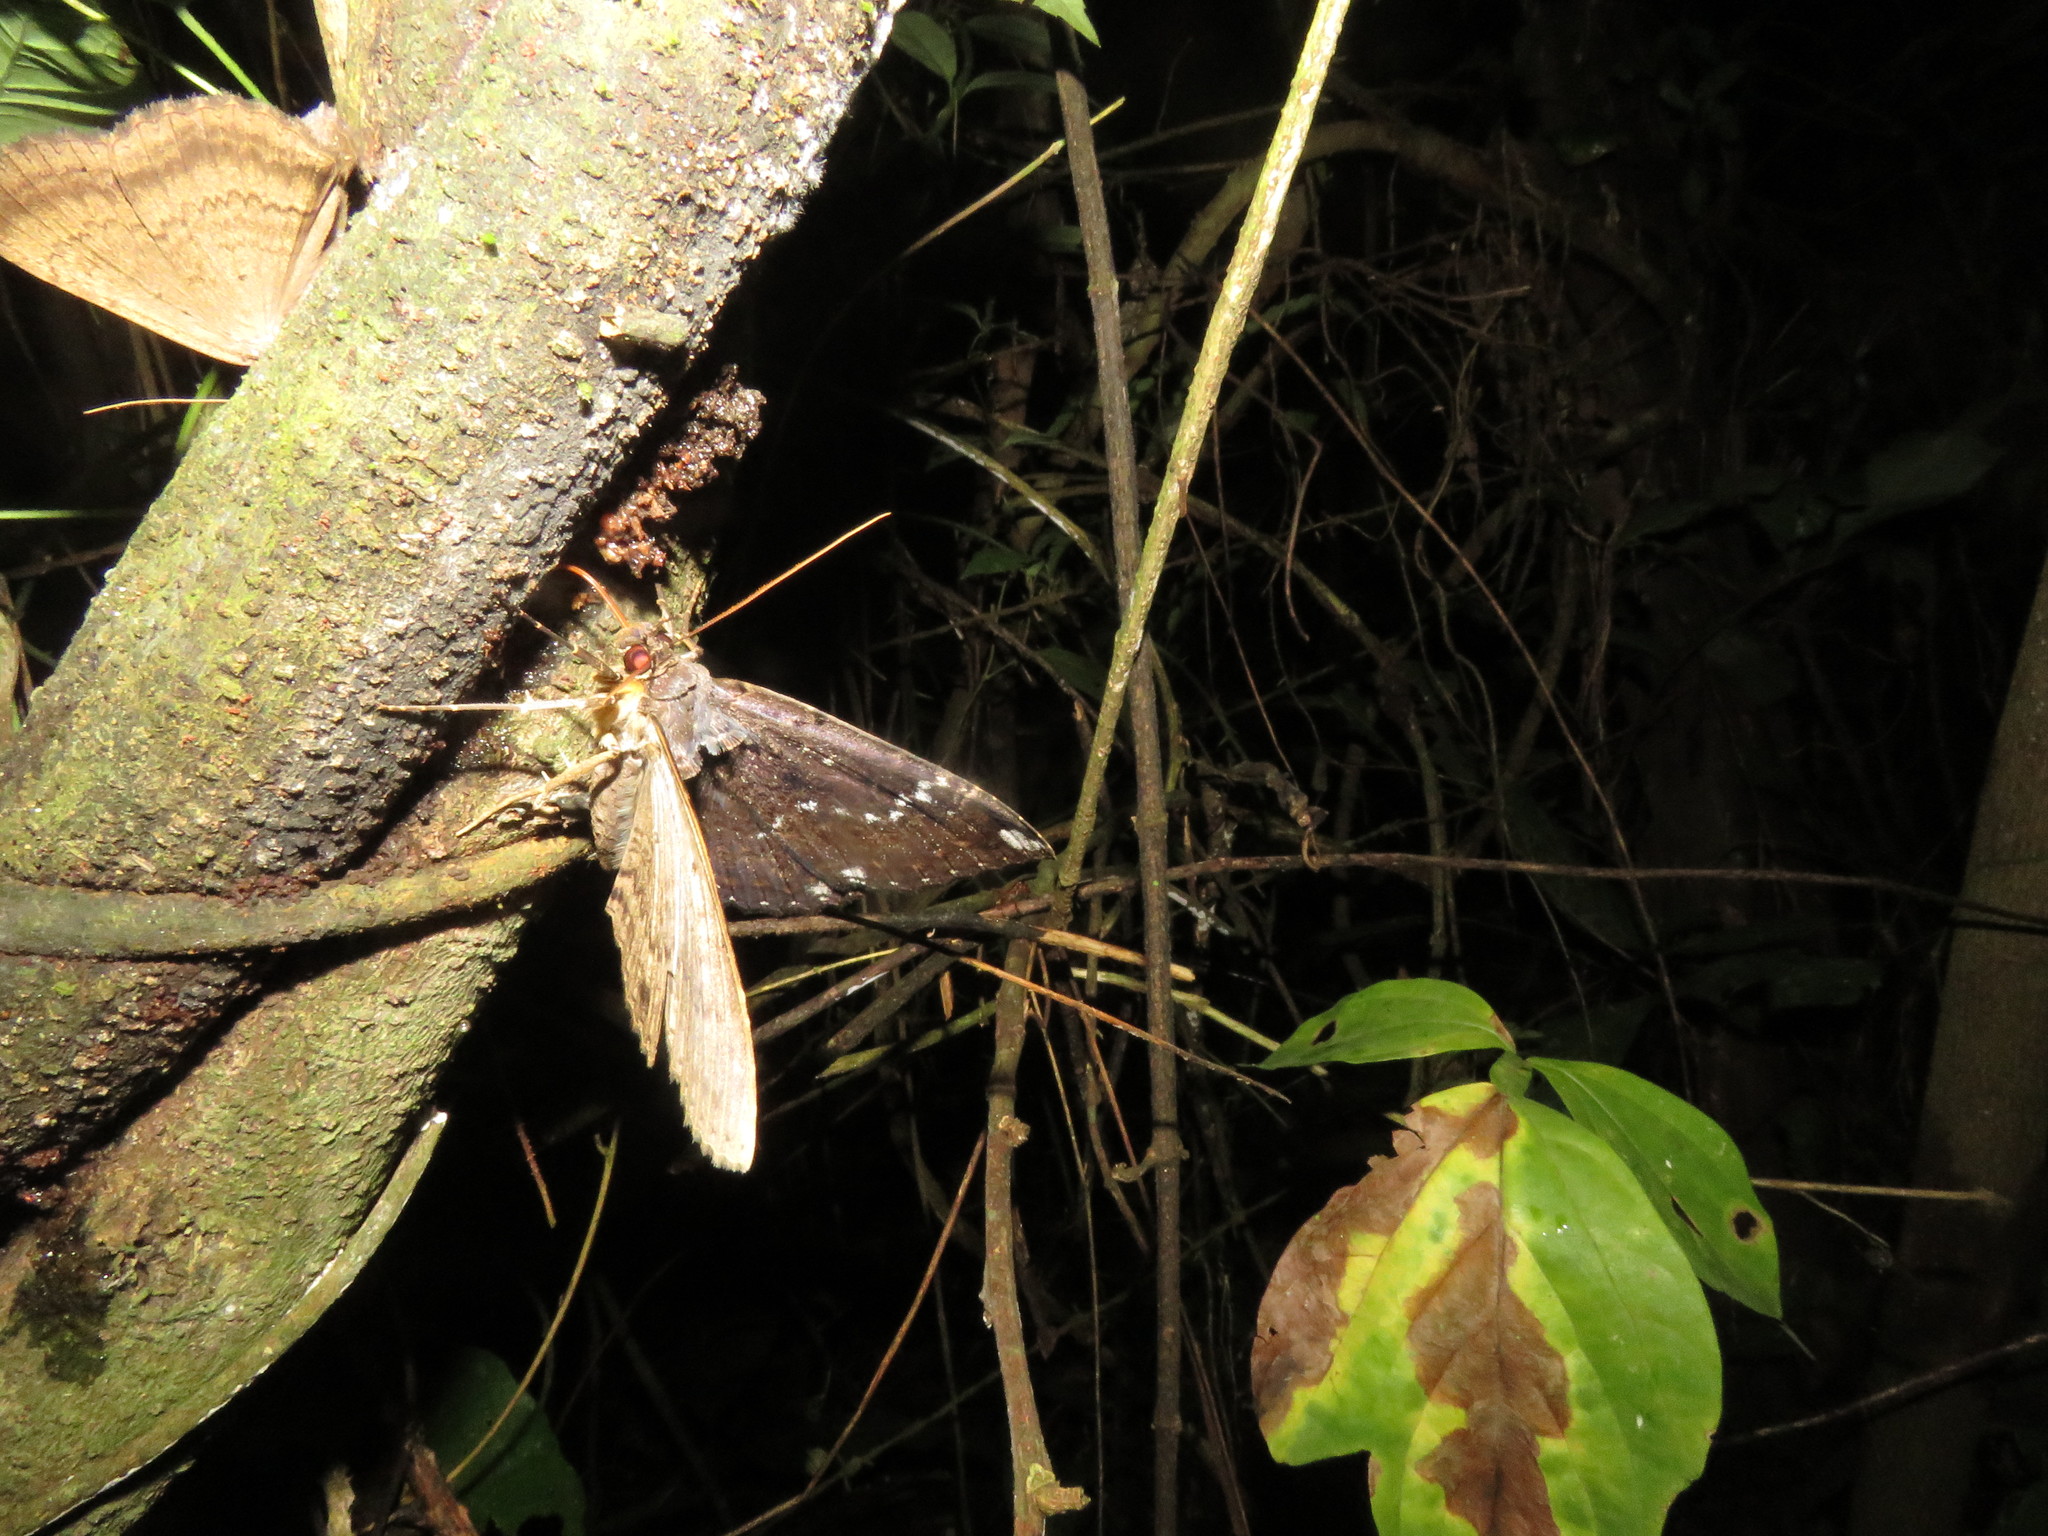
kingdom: Animalia
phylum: Arthropoda
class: Insecta
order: Lepidoptera
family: Erebidae
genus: Ramphia
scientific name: Ramphia albizona
